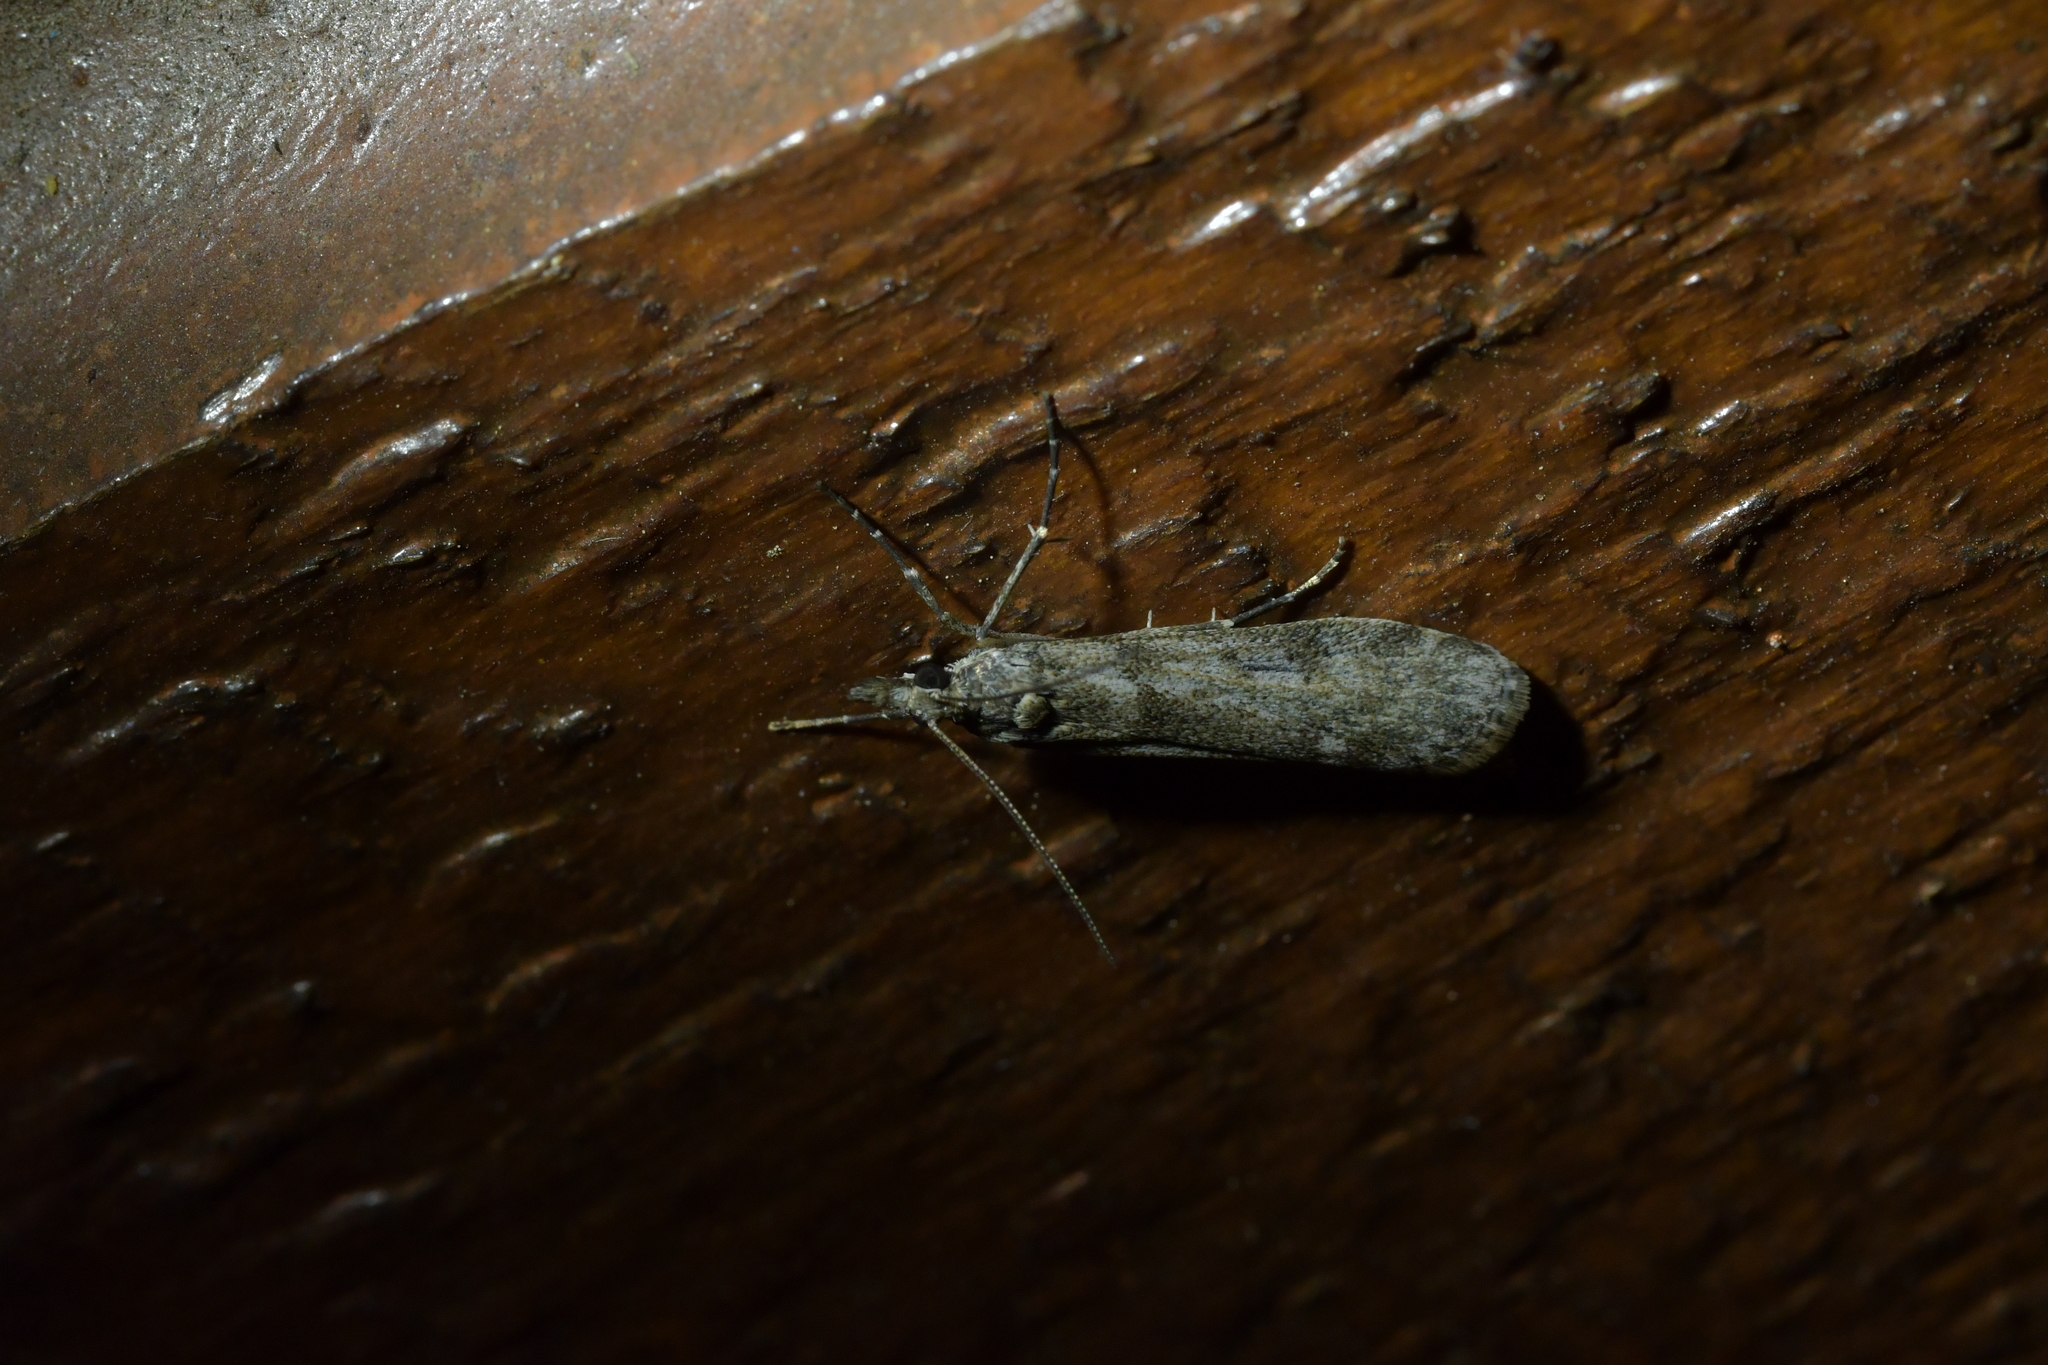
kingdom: Animalia
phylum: Arthropoda
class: Insecta
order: Lepidoptera
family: Crambidae
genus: Eudonia
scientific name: Eudonia leptalea
